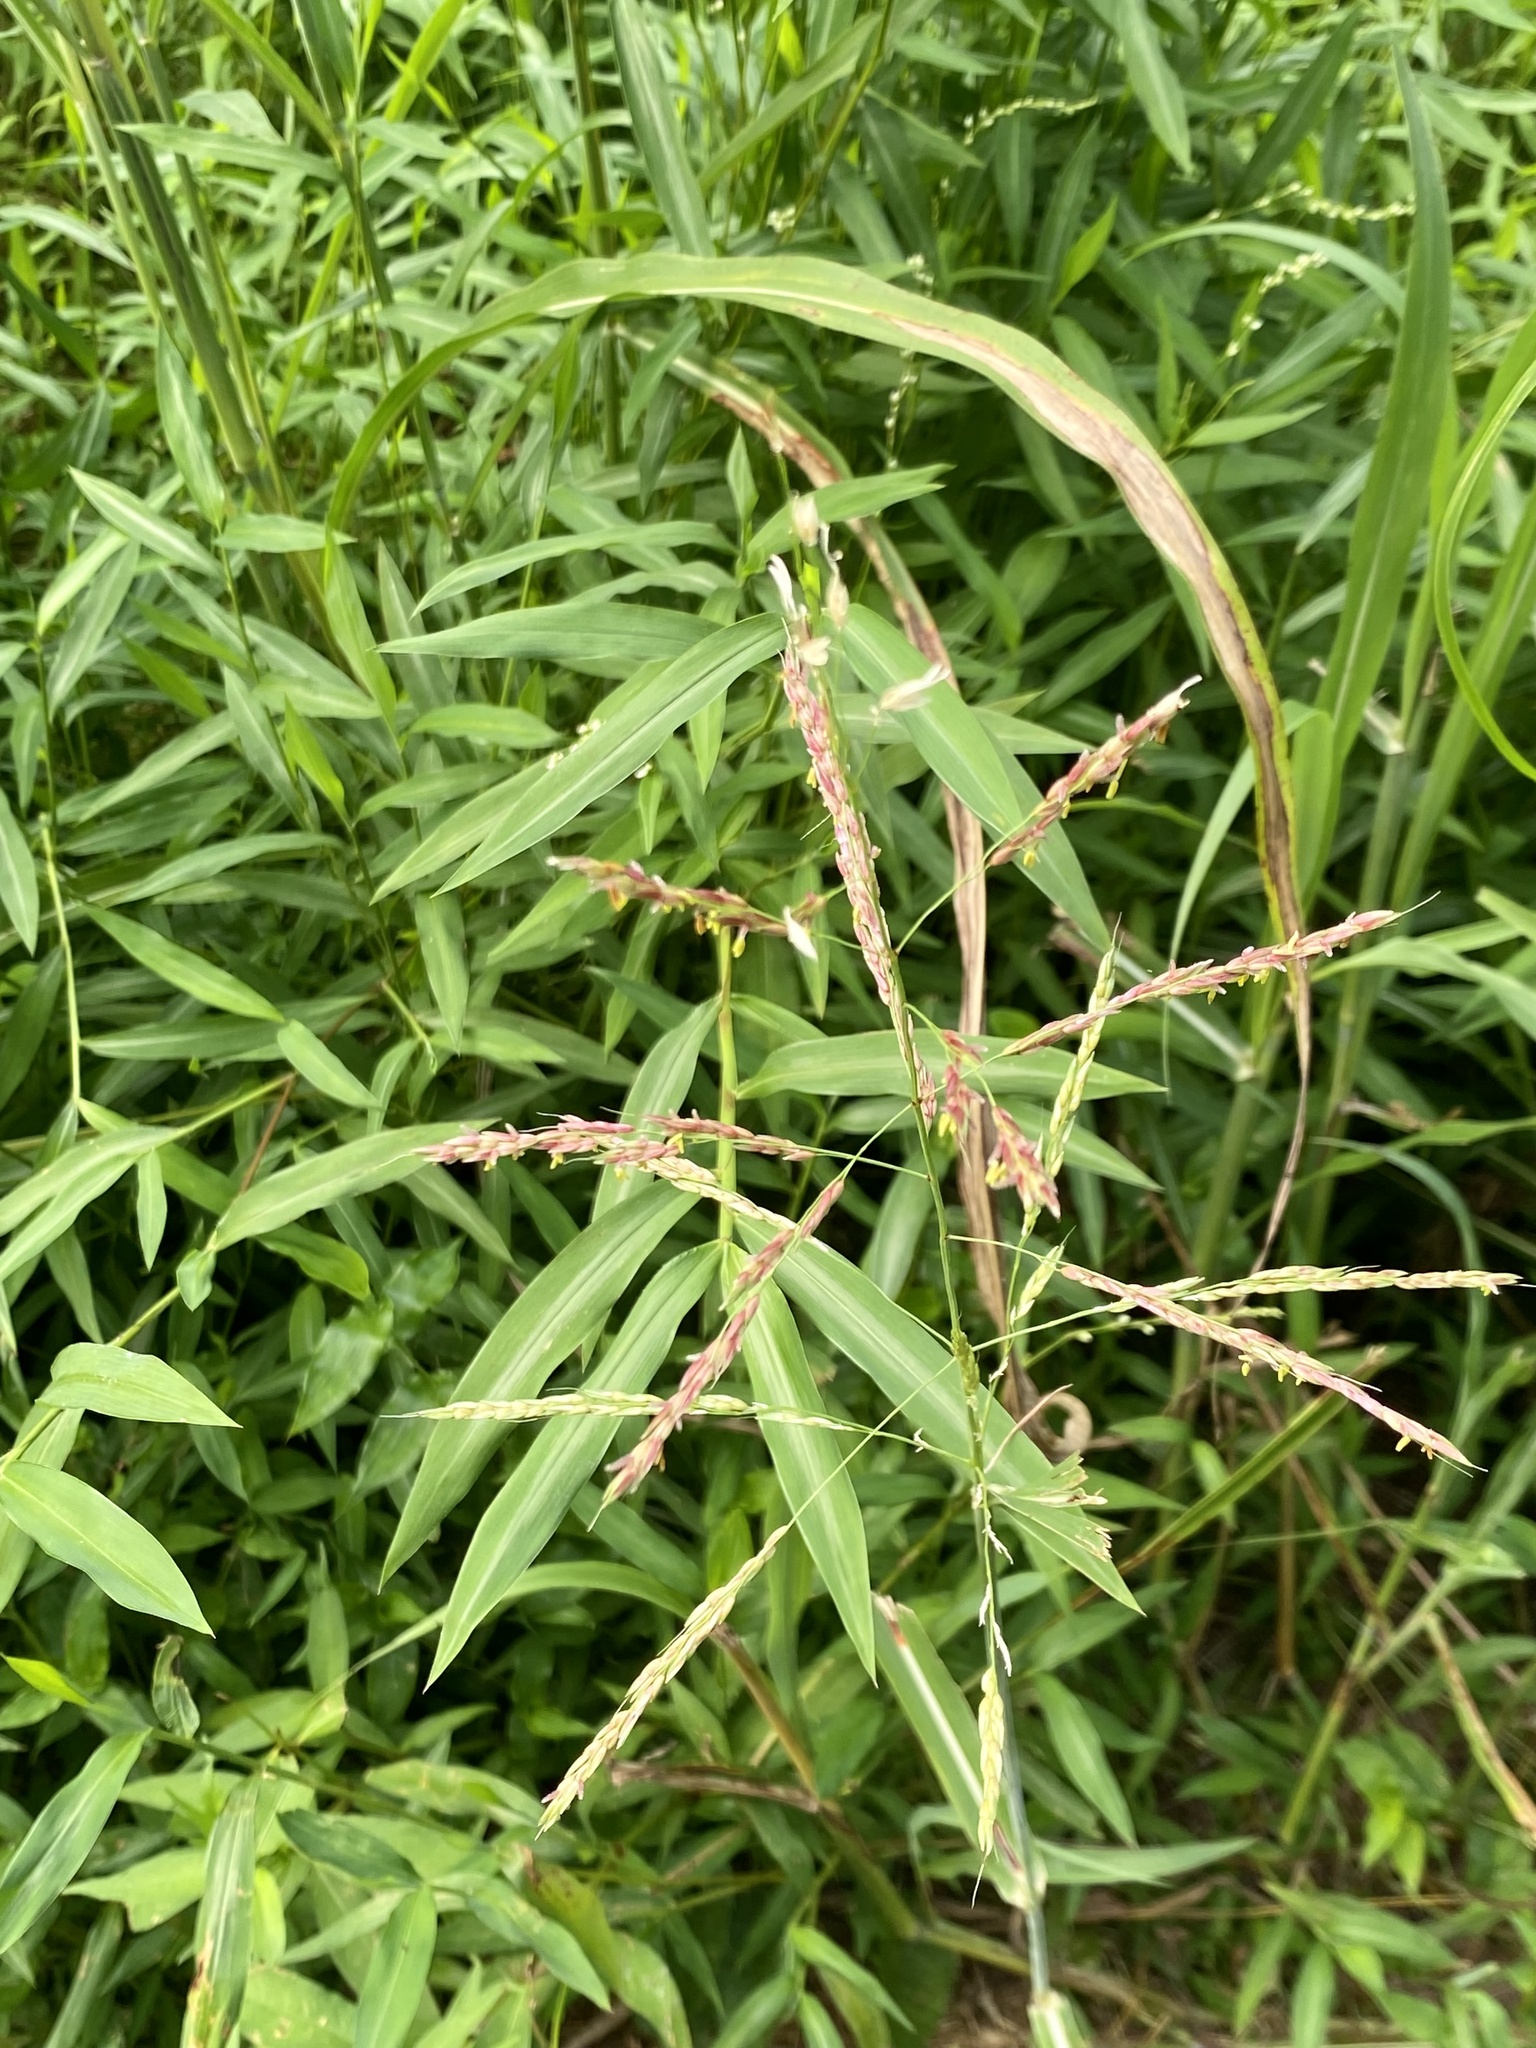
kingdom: Plantae
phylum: Tracheophyta
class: Liliopsida
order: Poales
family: Poaceae
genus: Sorghum
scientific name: Sorghum halepense
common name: Johnson-grass
